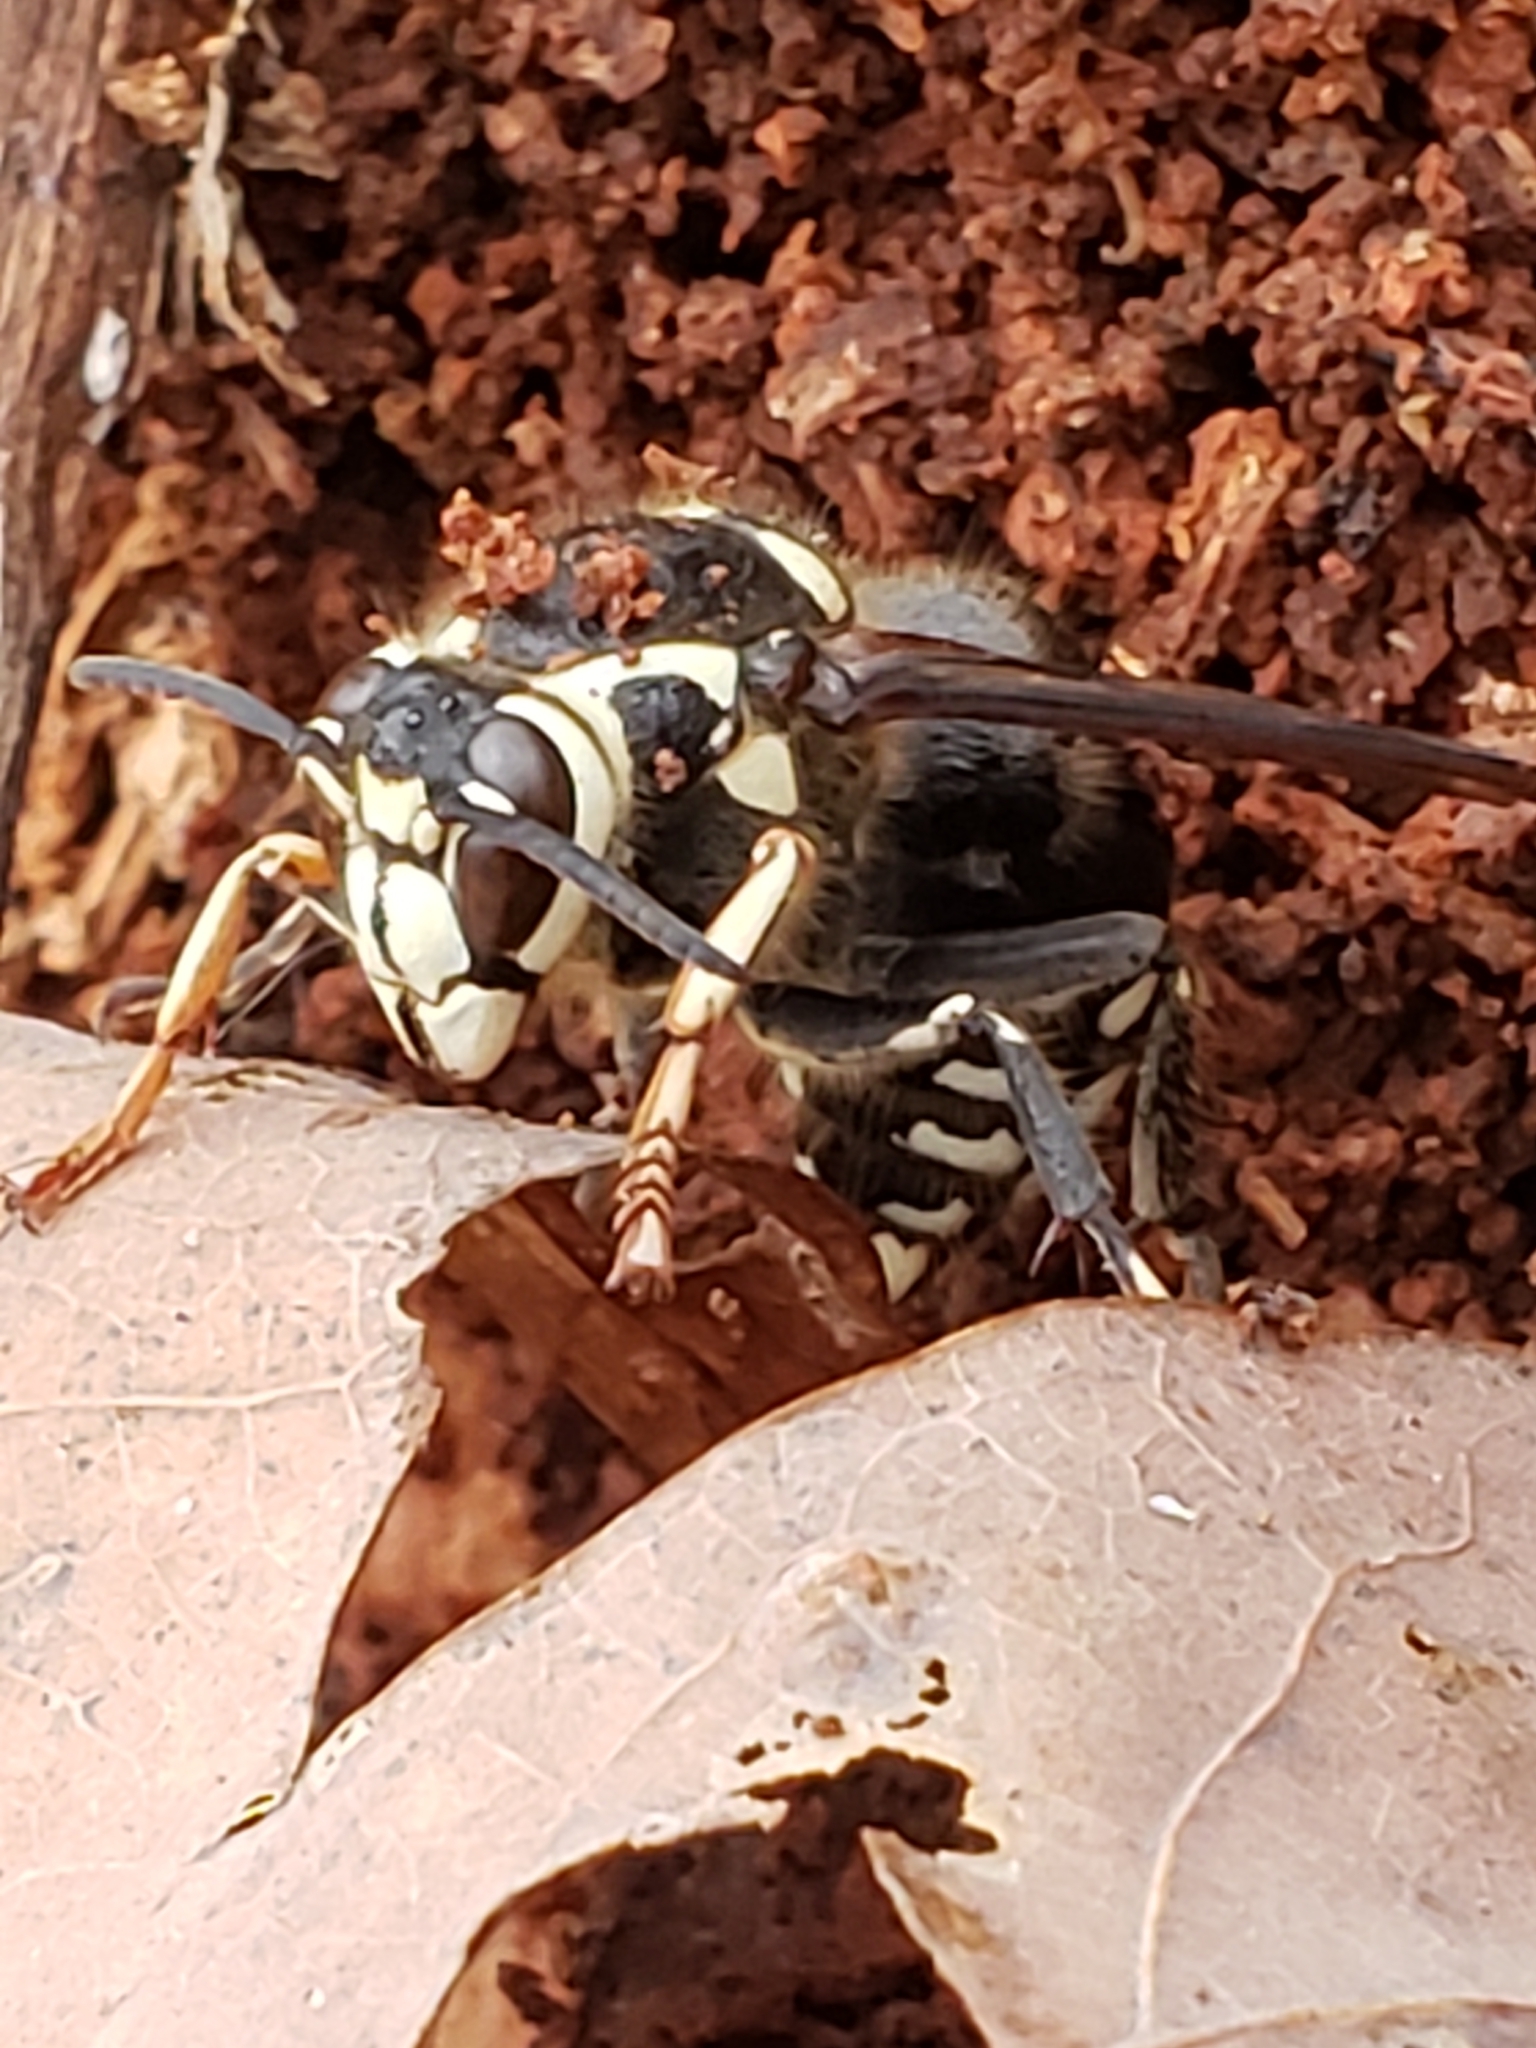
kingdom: Animalia
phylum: Arthropoda
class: Insecta
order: Hymenoptera
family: Vespidae
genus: Dolichovespula
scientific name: Dolichovespula maculata
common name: Bald-faced hornet
